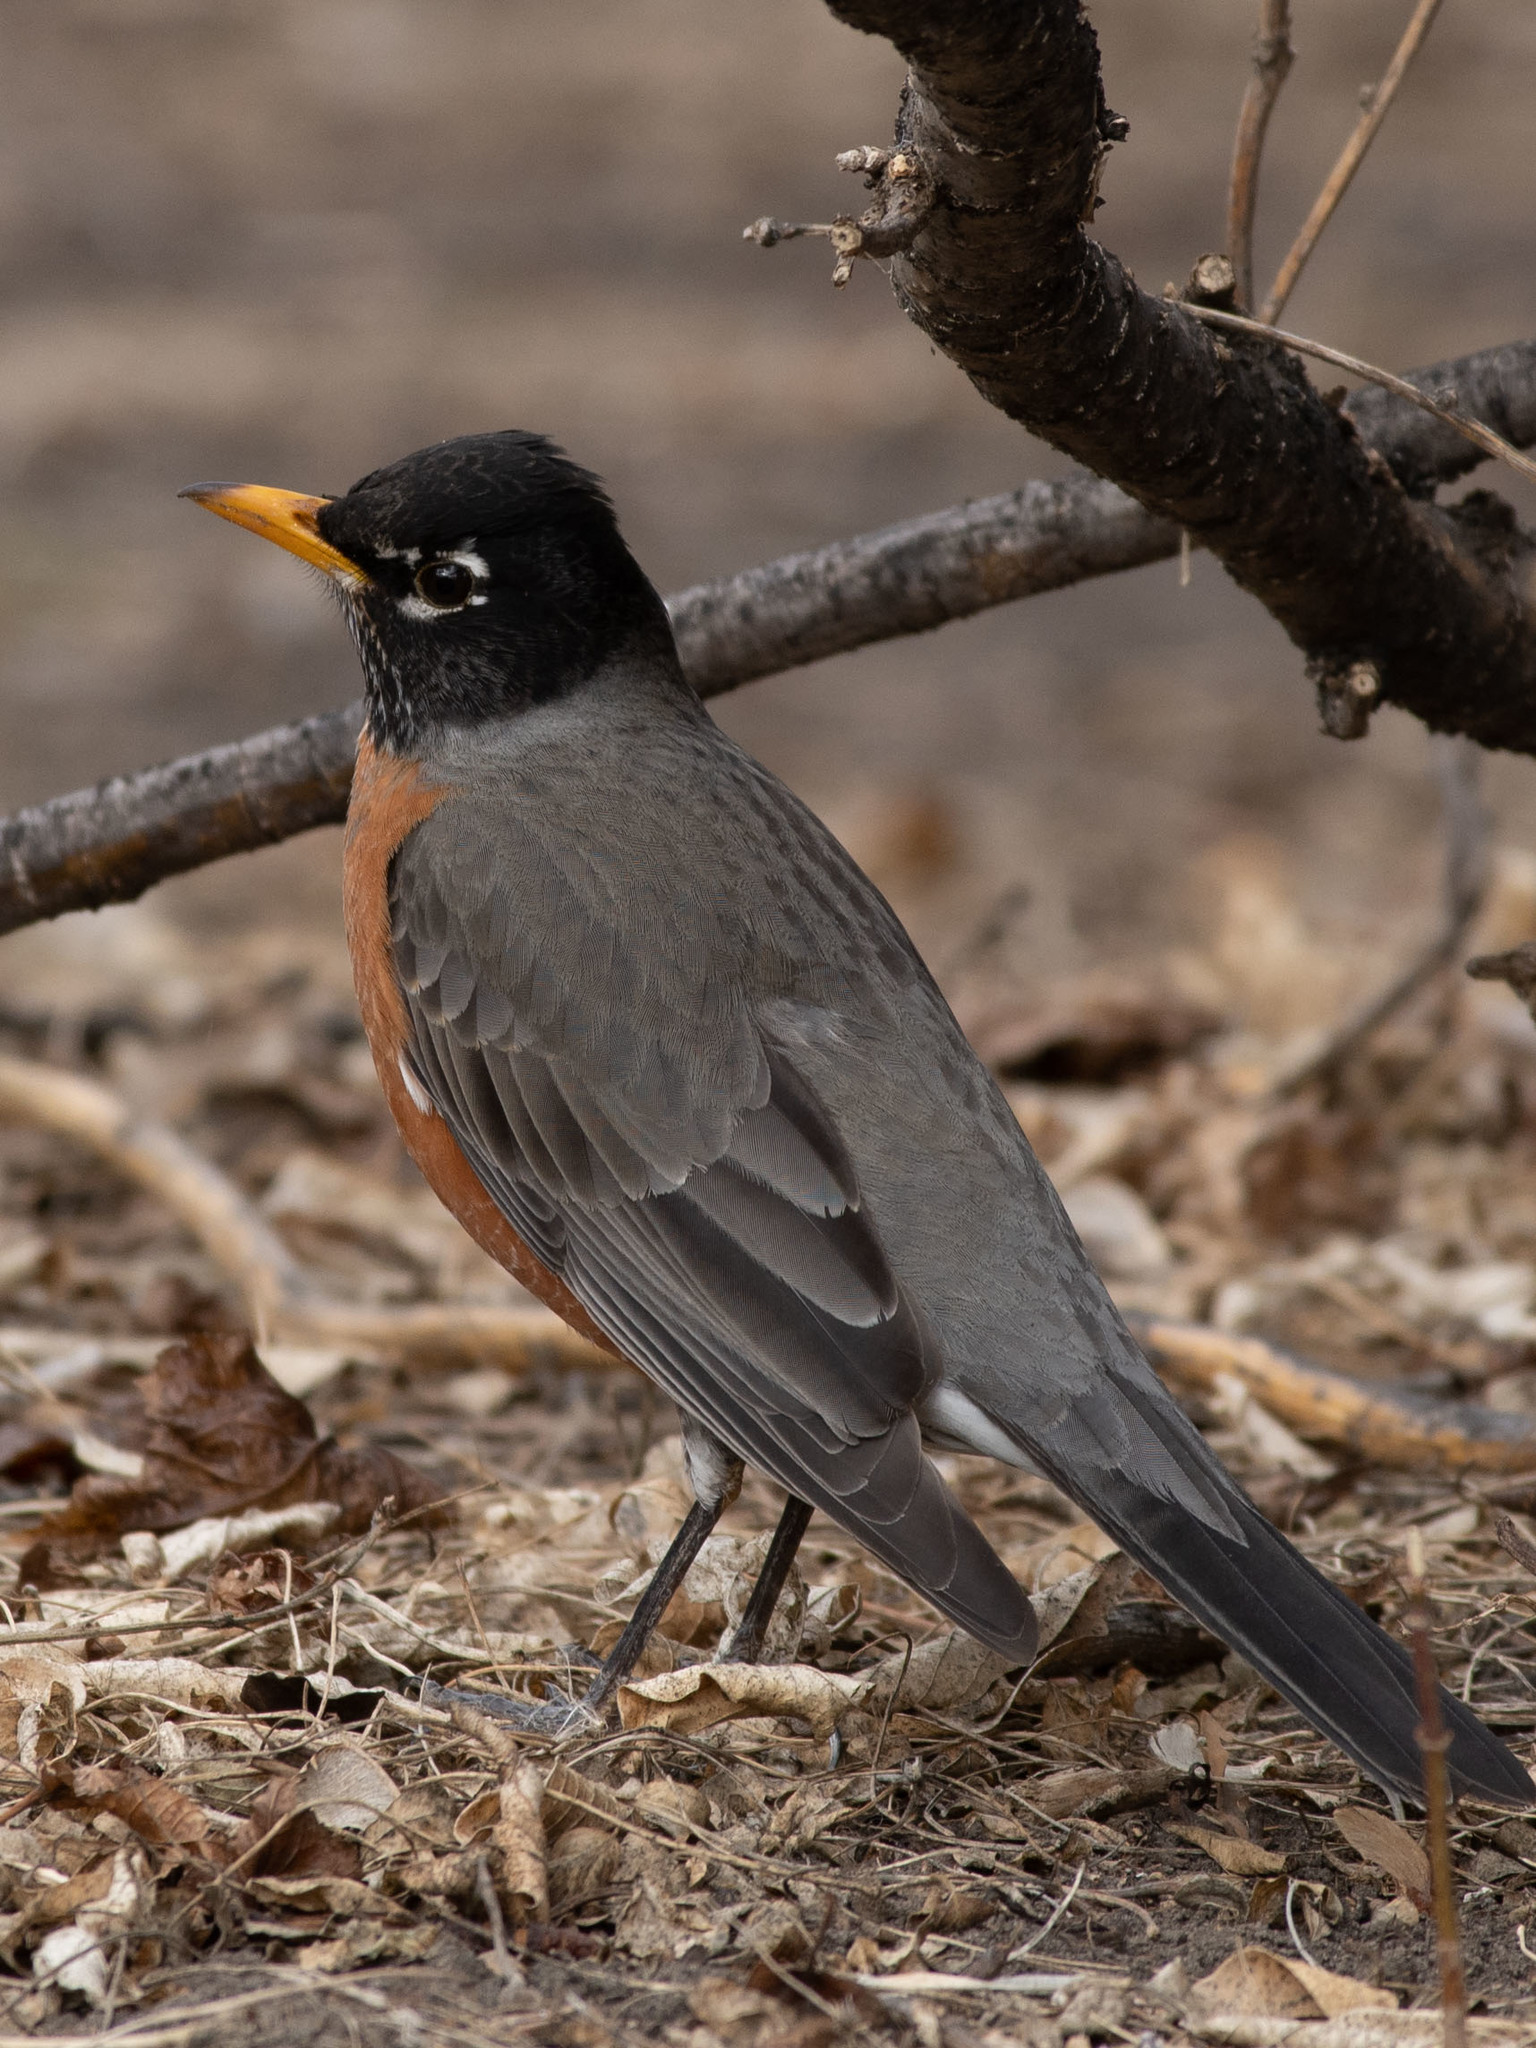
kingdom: Animalia
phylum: Chordata
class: Aves
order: Passeriformes
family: Turdidae
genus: Turdus
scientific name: Turdus migratorius
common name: American robin
